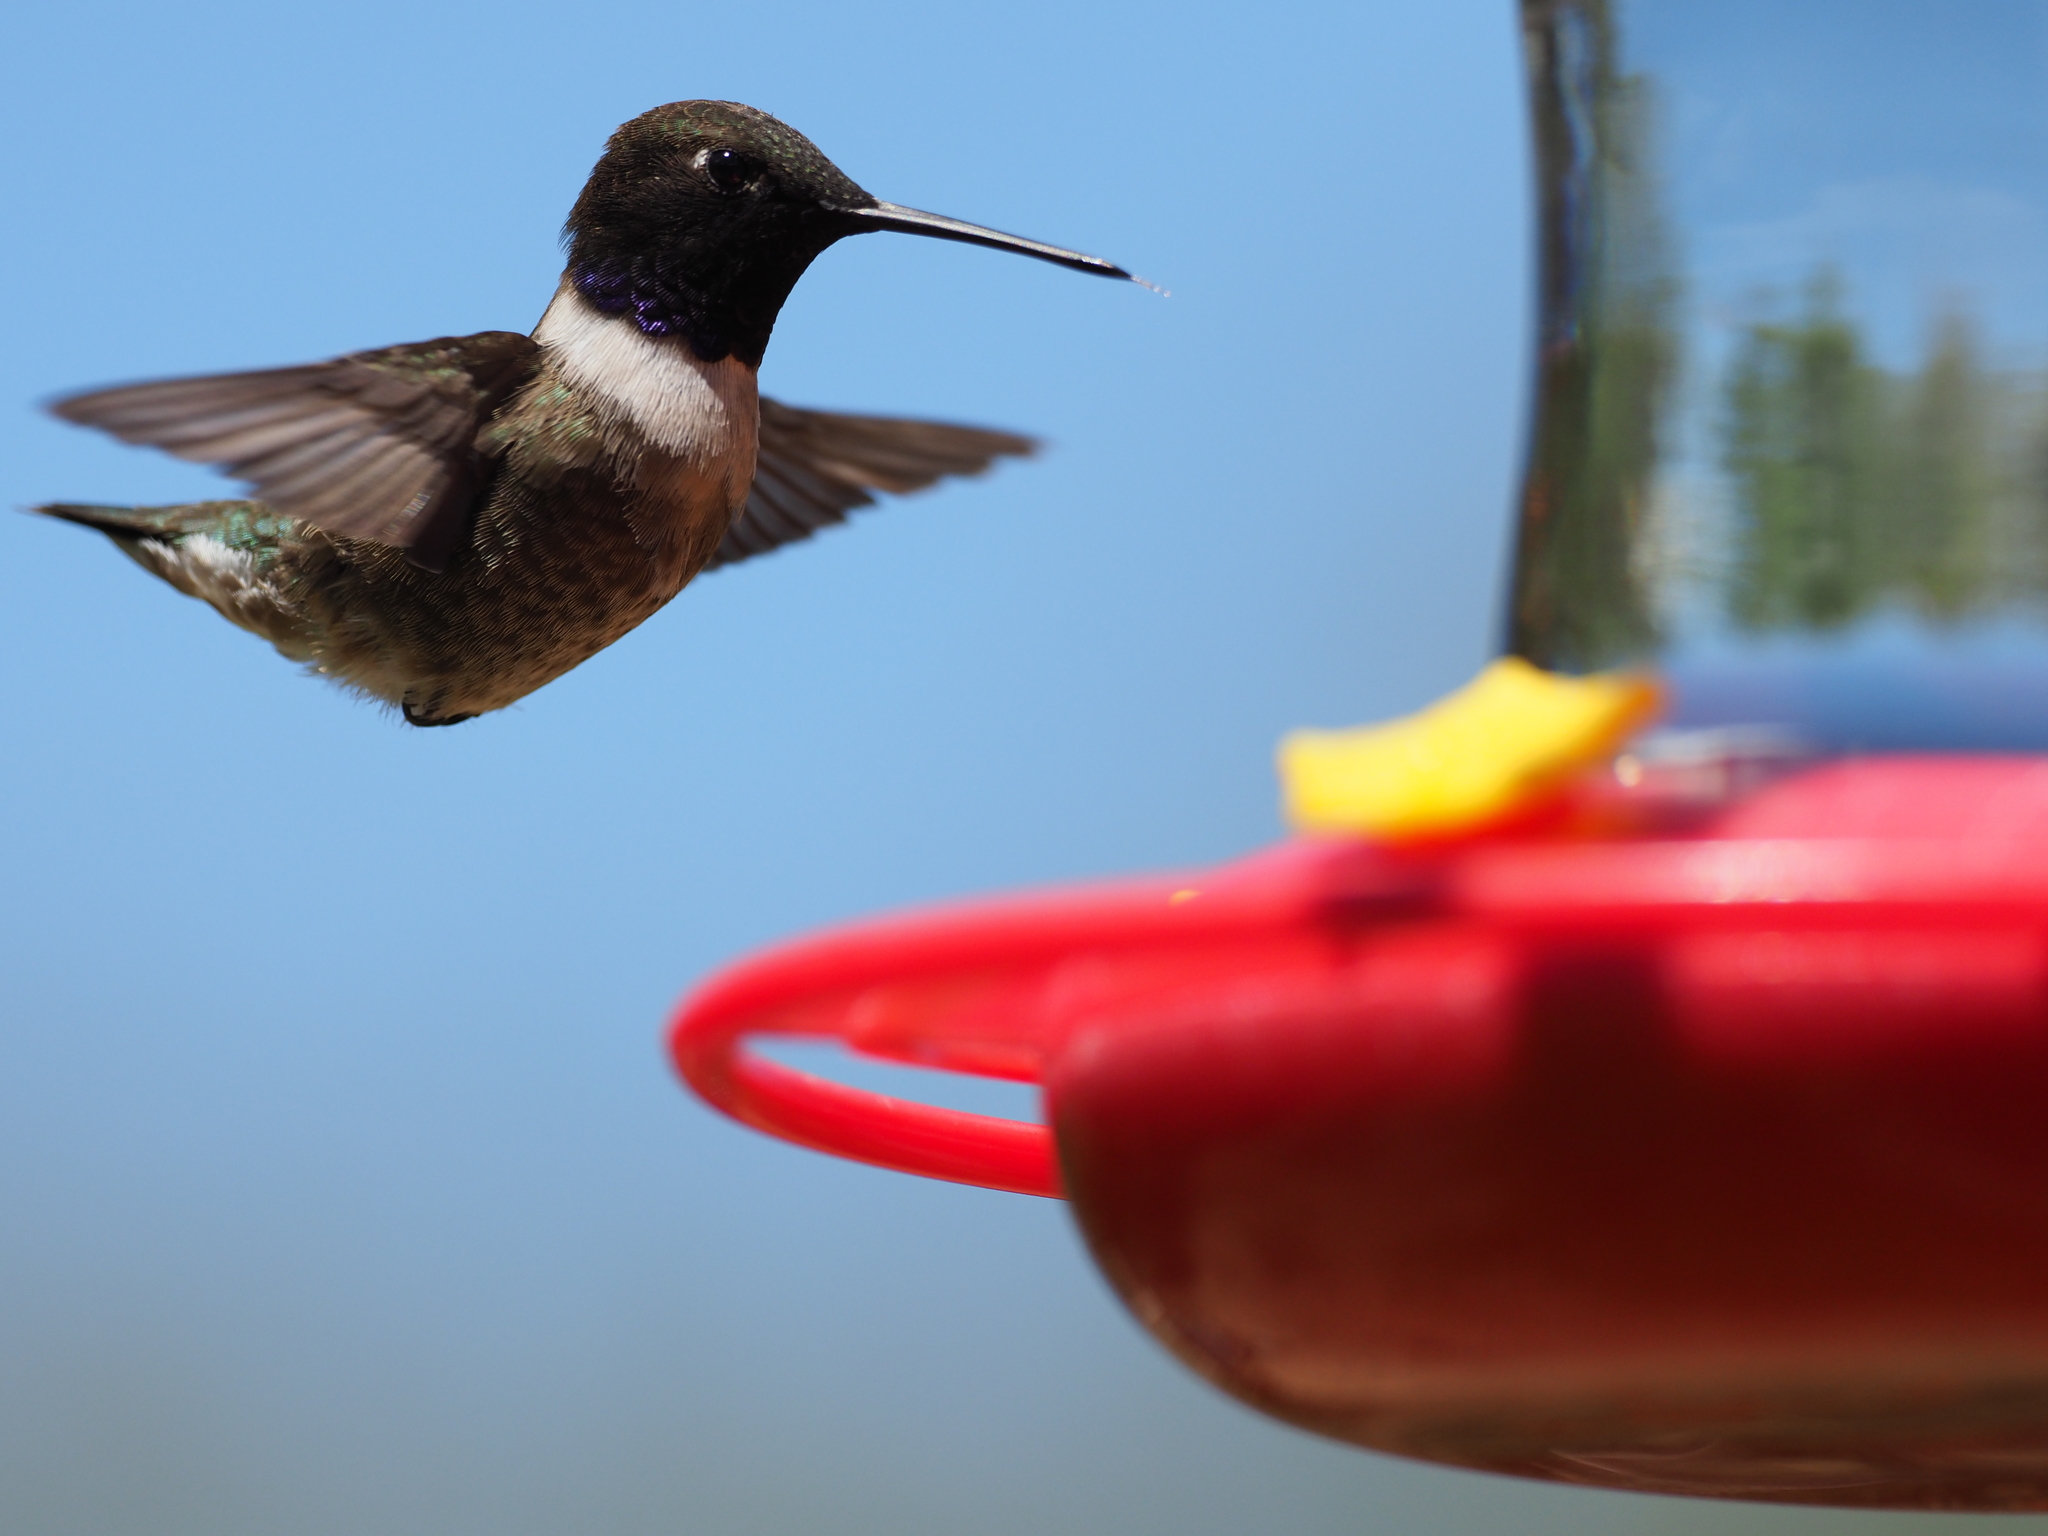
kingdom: Animalia
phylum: Chordata
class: Aves
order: Apodiformes
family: Trochilidae
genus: Archilochus
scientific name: Archilochus alexandri
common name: Black-chinned hummingbird
